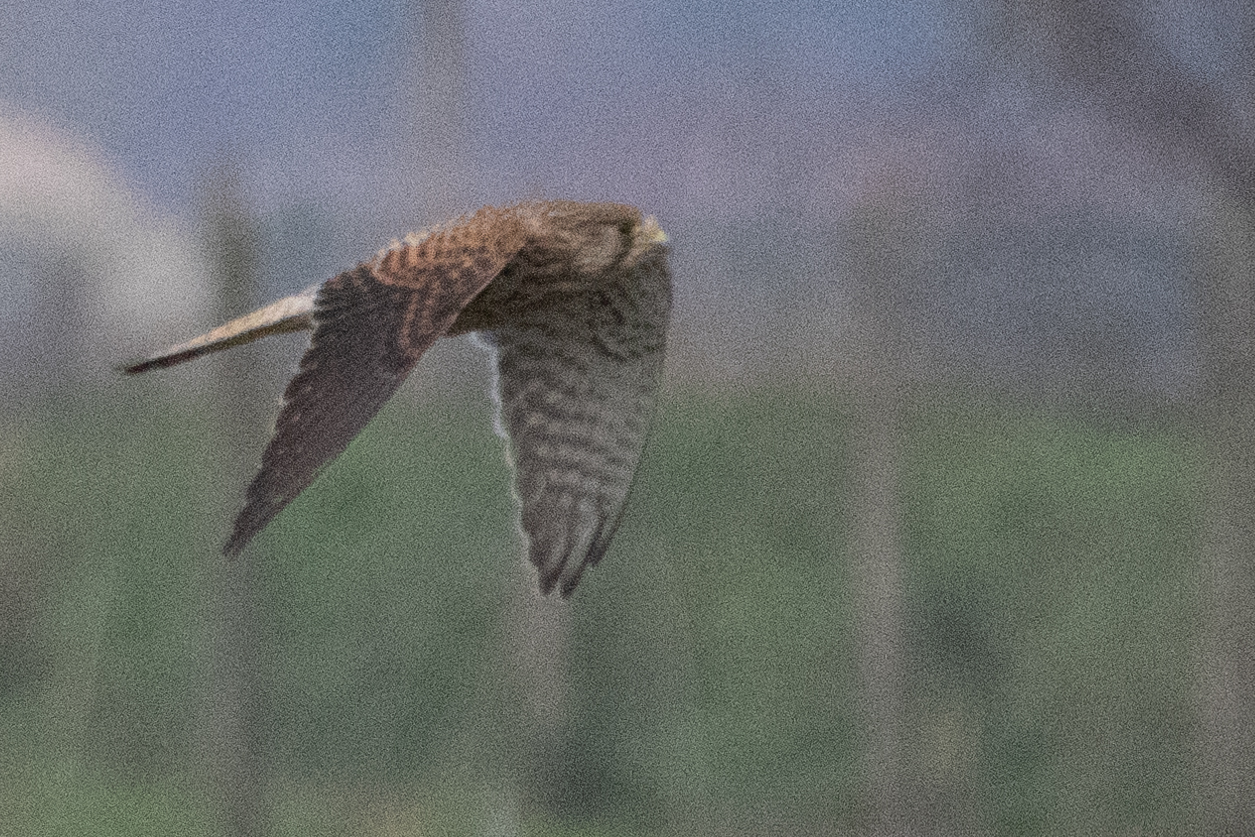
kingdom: Animalia
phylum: Chordata
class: Aves
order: Falconiformes
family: Falconidae
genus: Falco
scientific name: Falco tinnunculus
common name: Common kestrel
